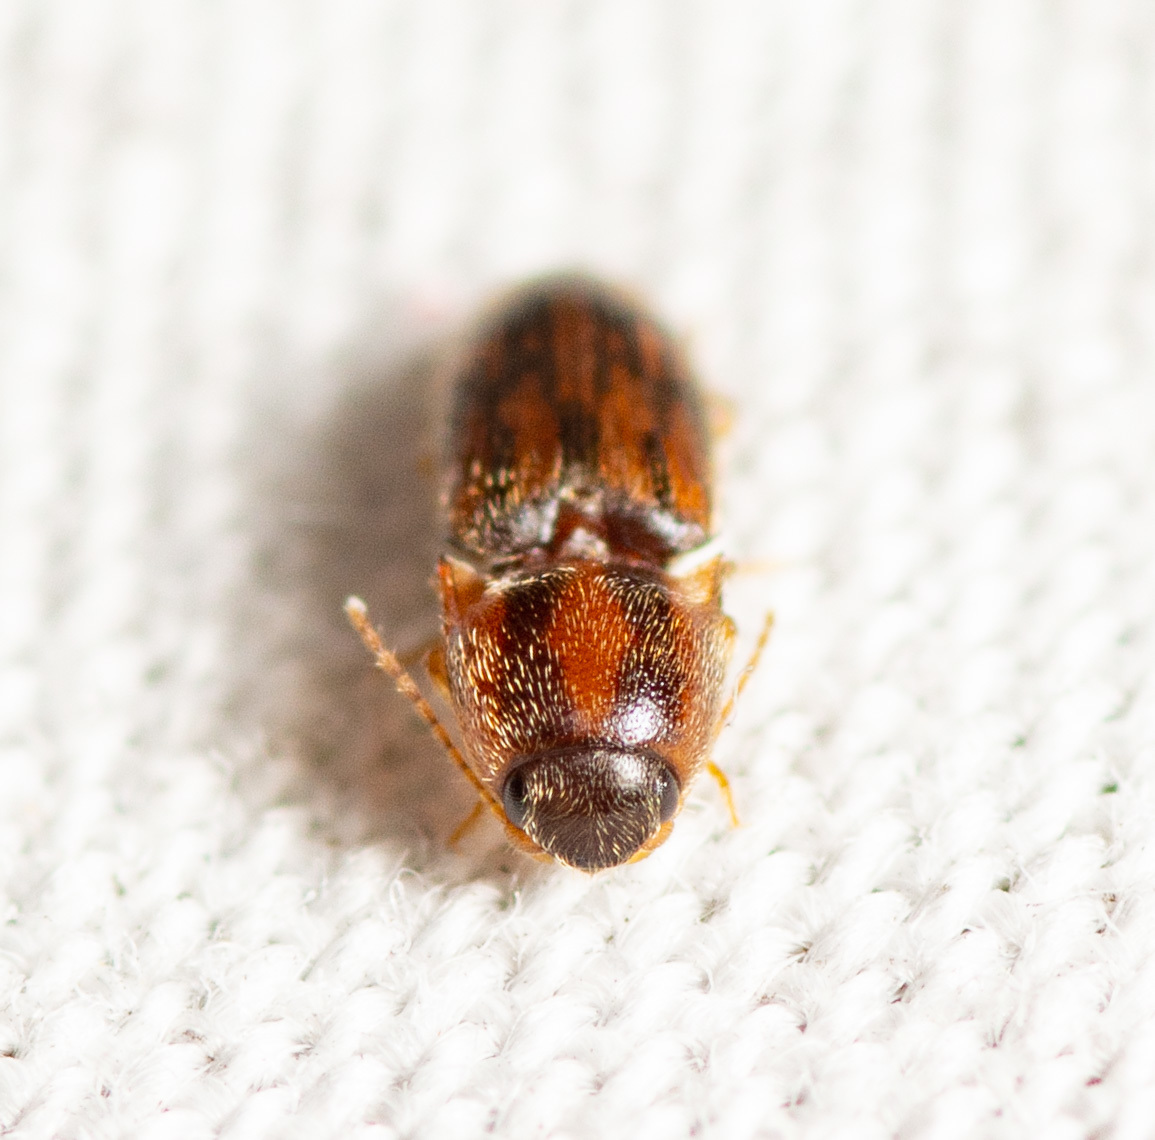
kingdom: Animalia
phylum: Arthropoda
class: Insecta
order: Coleoptera
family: Elateridae
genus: Monocrepidius
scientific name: Monocrepidius bellus
